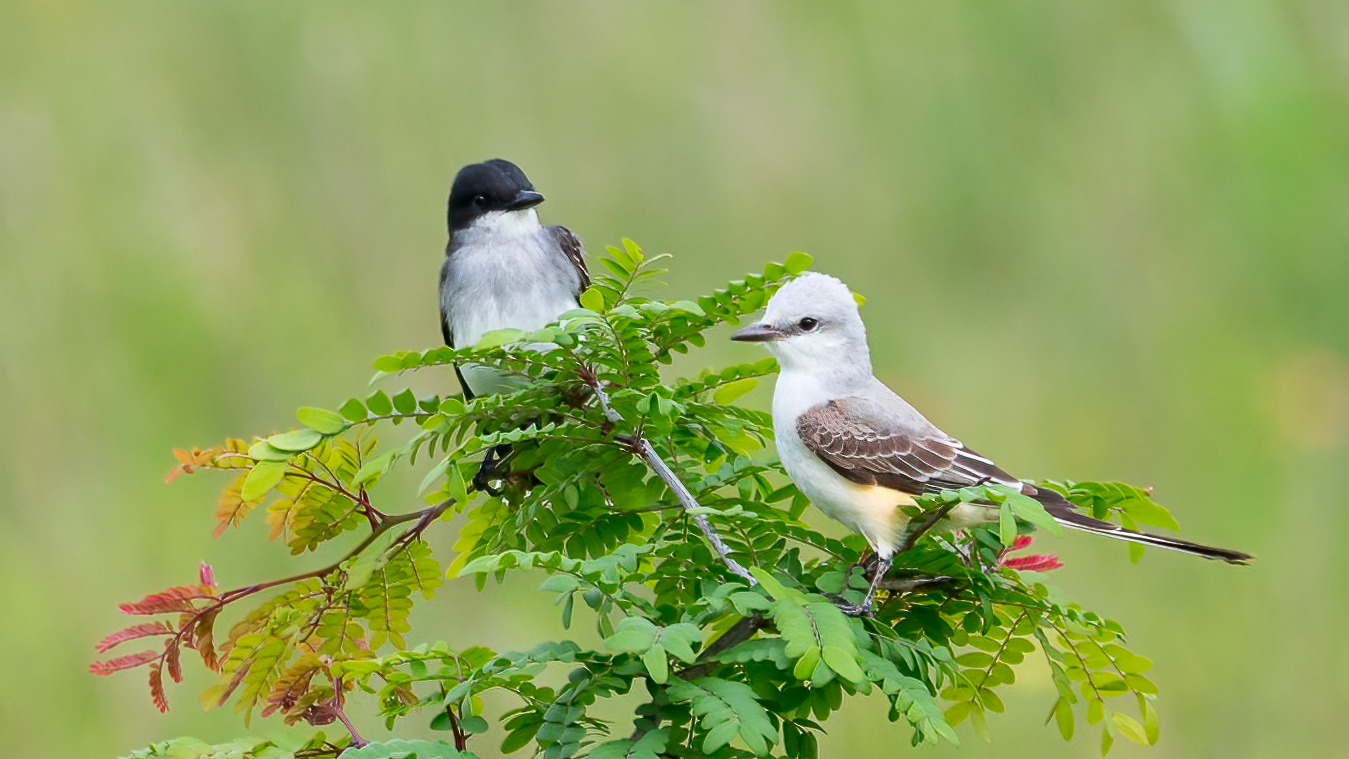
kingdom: Animalia
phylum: Chordata
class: Aves
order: Passeriformes
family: Tyrannidae
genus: Tyrannus
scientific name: Tyrannus tyrannus
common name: Eastern kingbird
